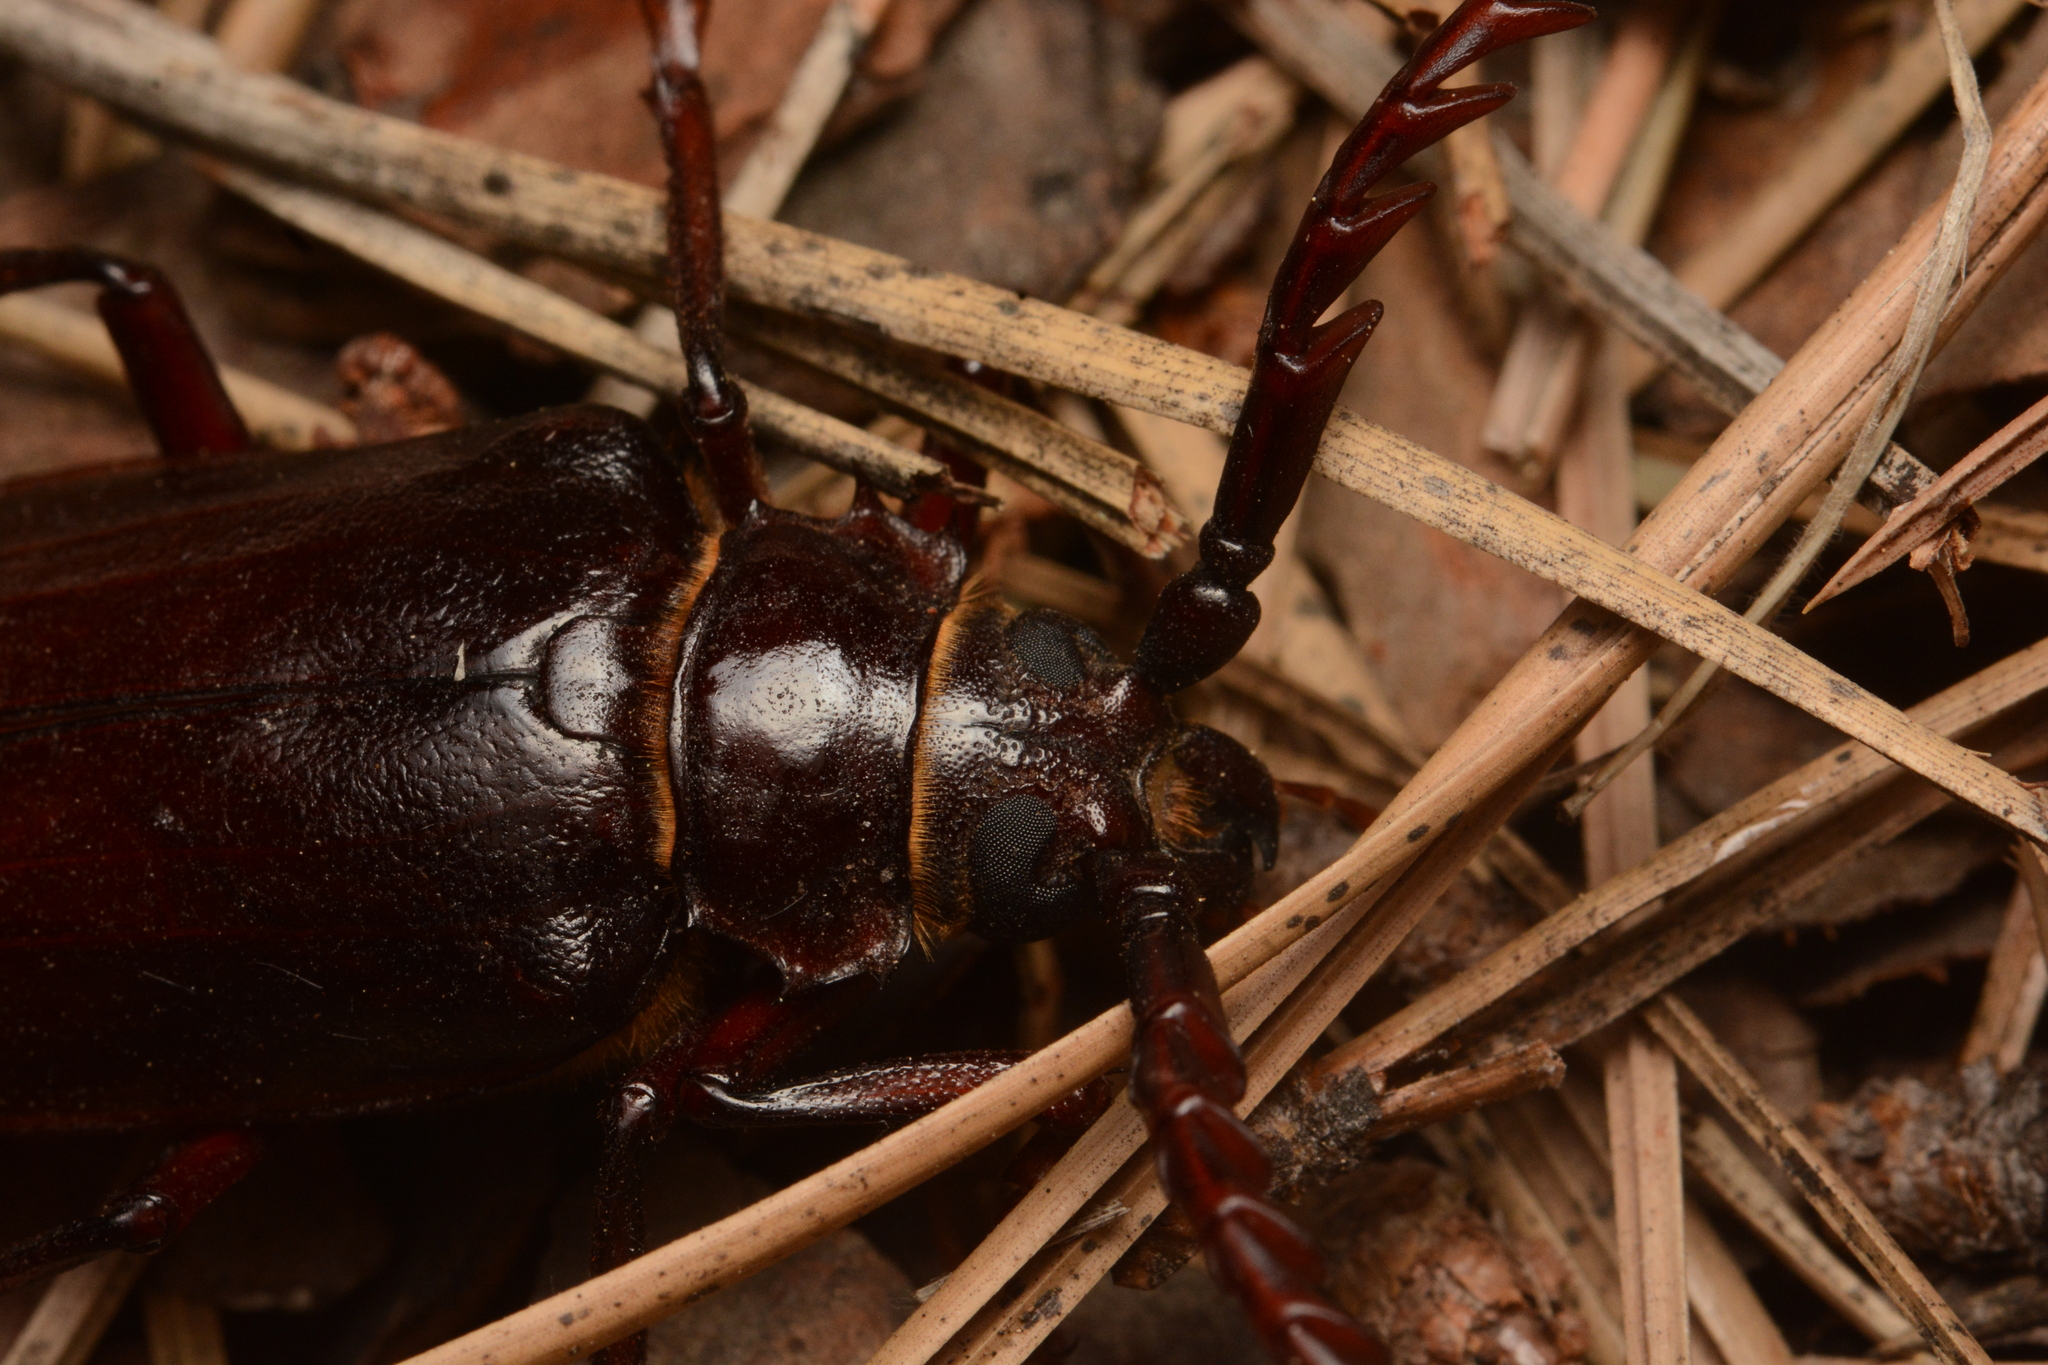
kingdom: Animalia
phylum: Arthropoda
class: Insecta
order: Coleoptera
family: Cerambycidae
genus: Prionus
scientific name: Prionus californicus
